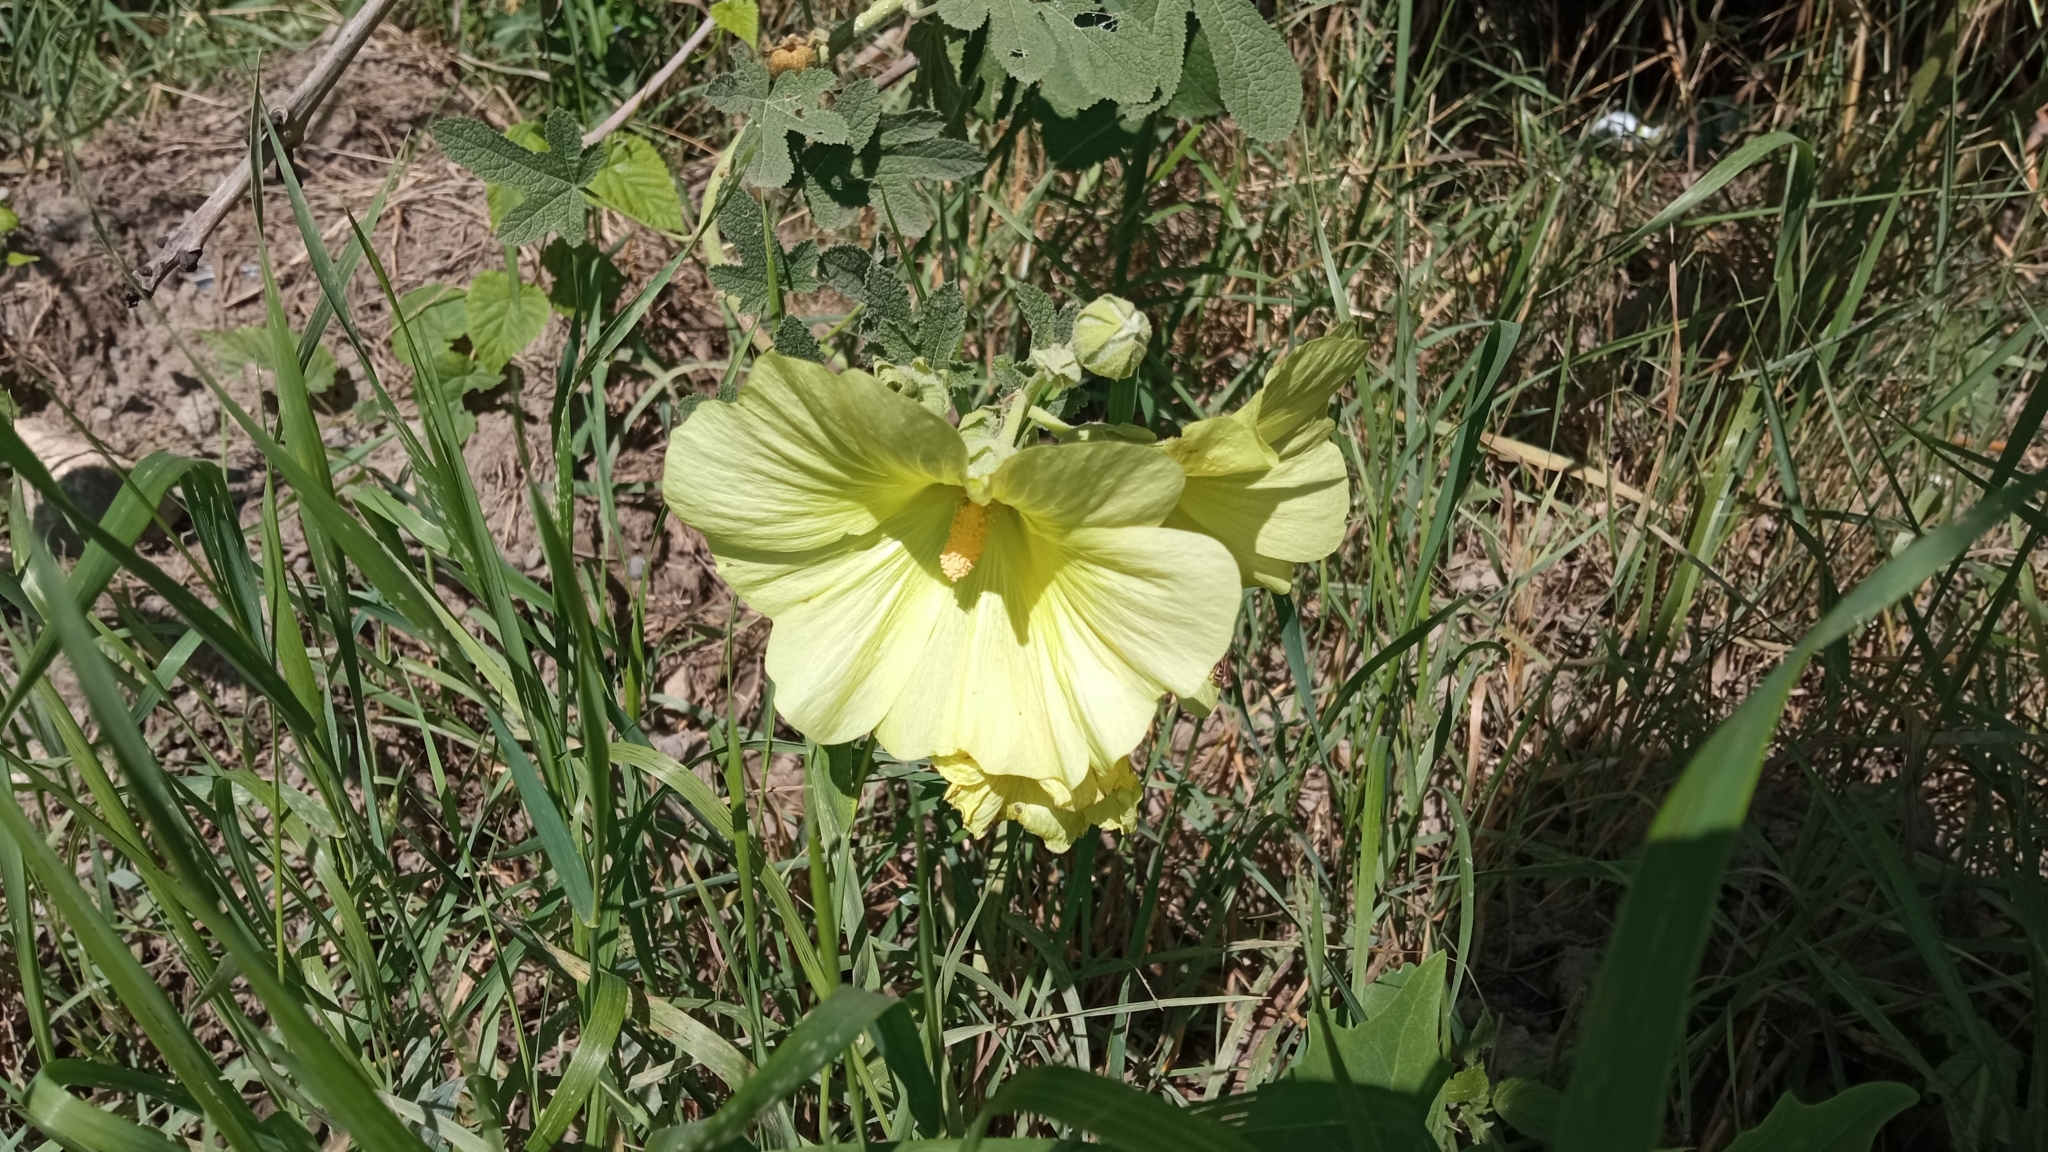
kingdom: Plantae
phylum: Tracheophyta
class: Magnoliopsida
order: Malvales
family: Malvaceae
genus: Alcea
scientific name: Alcea rugosa
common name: Russian hollyhock
